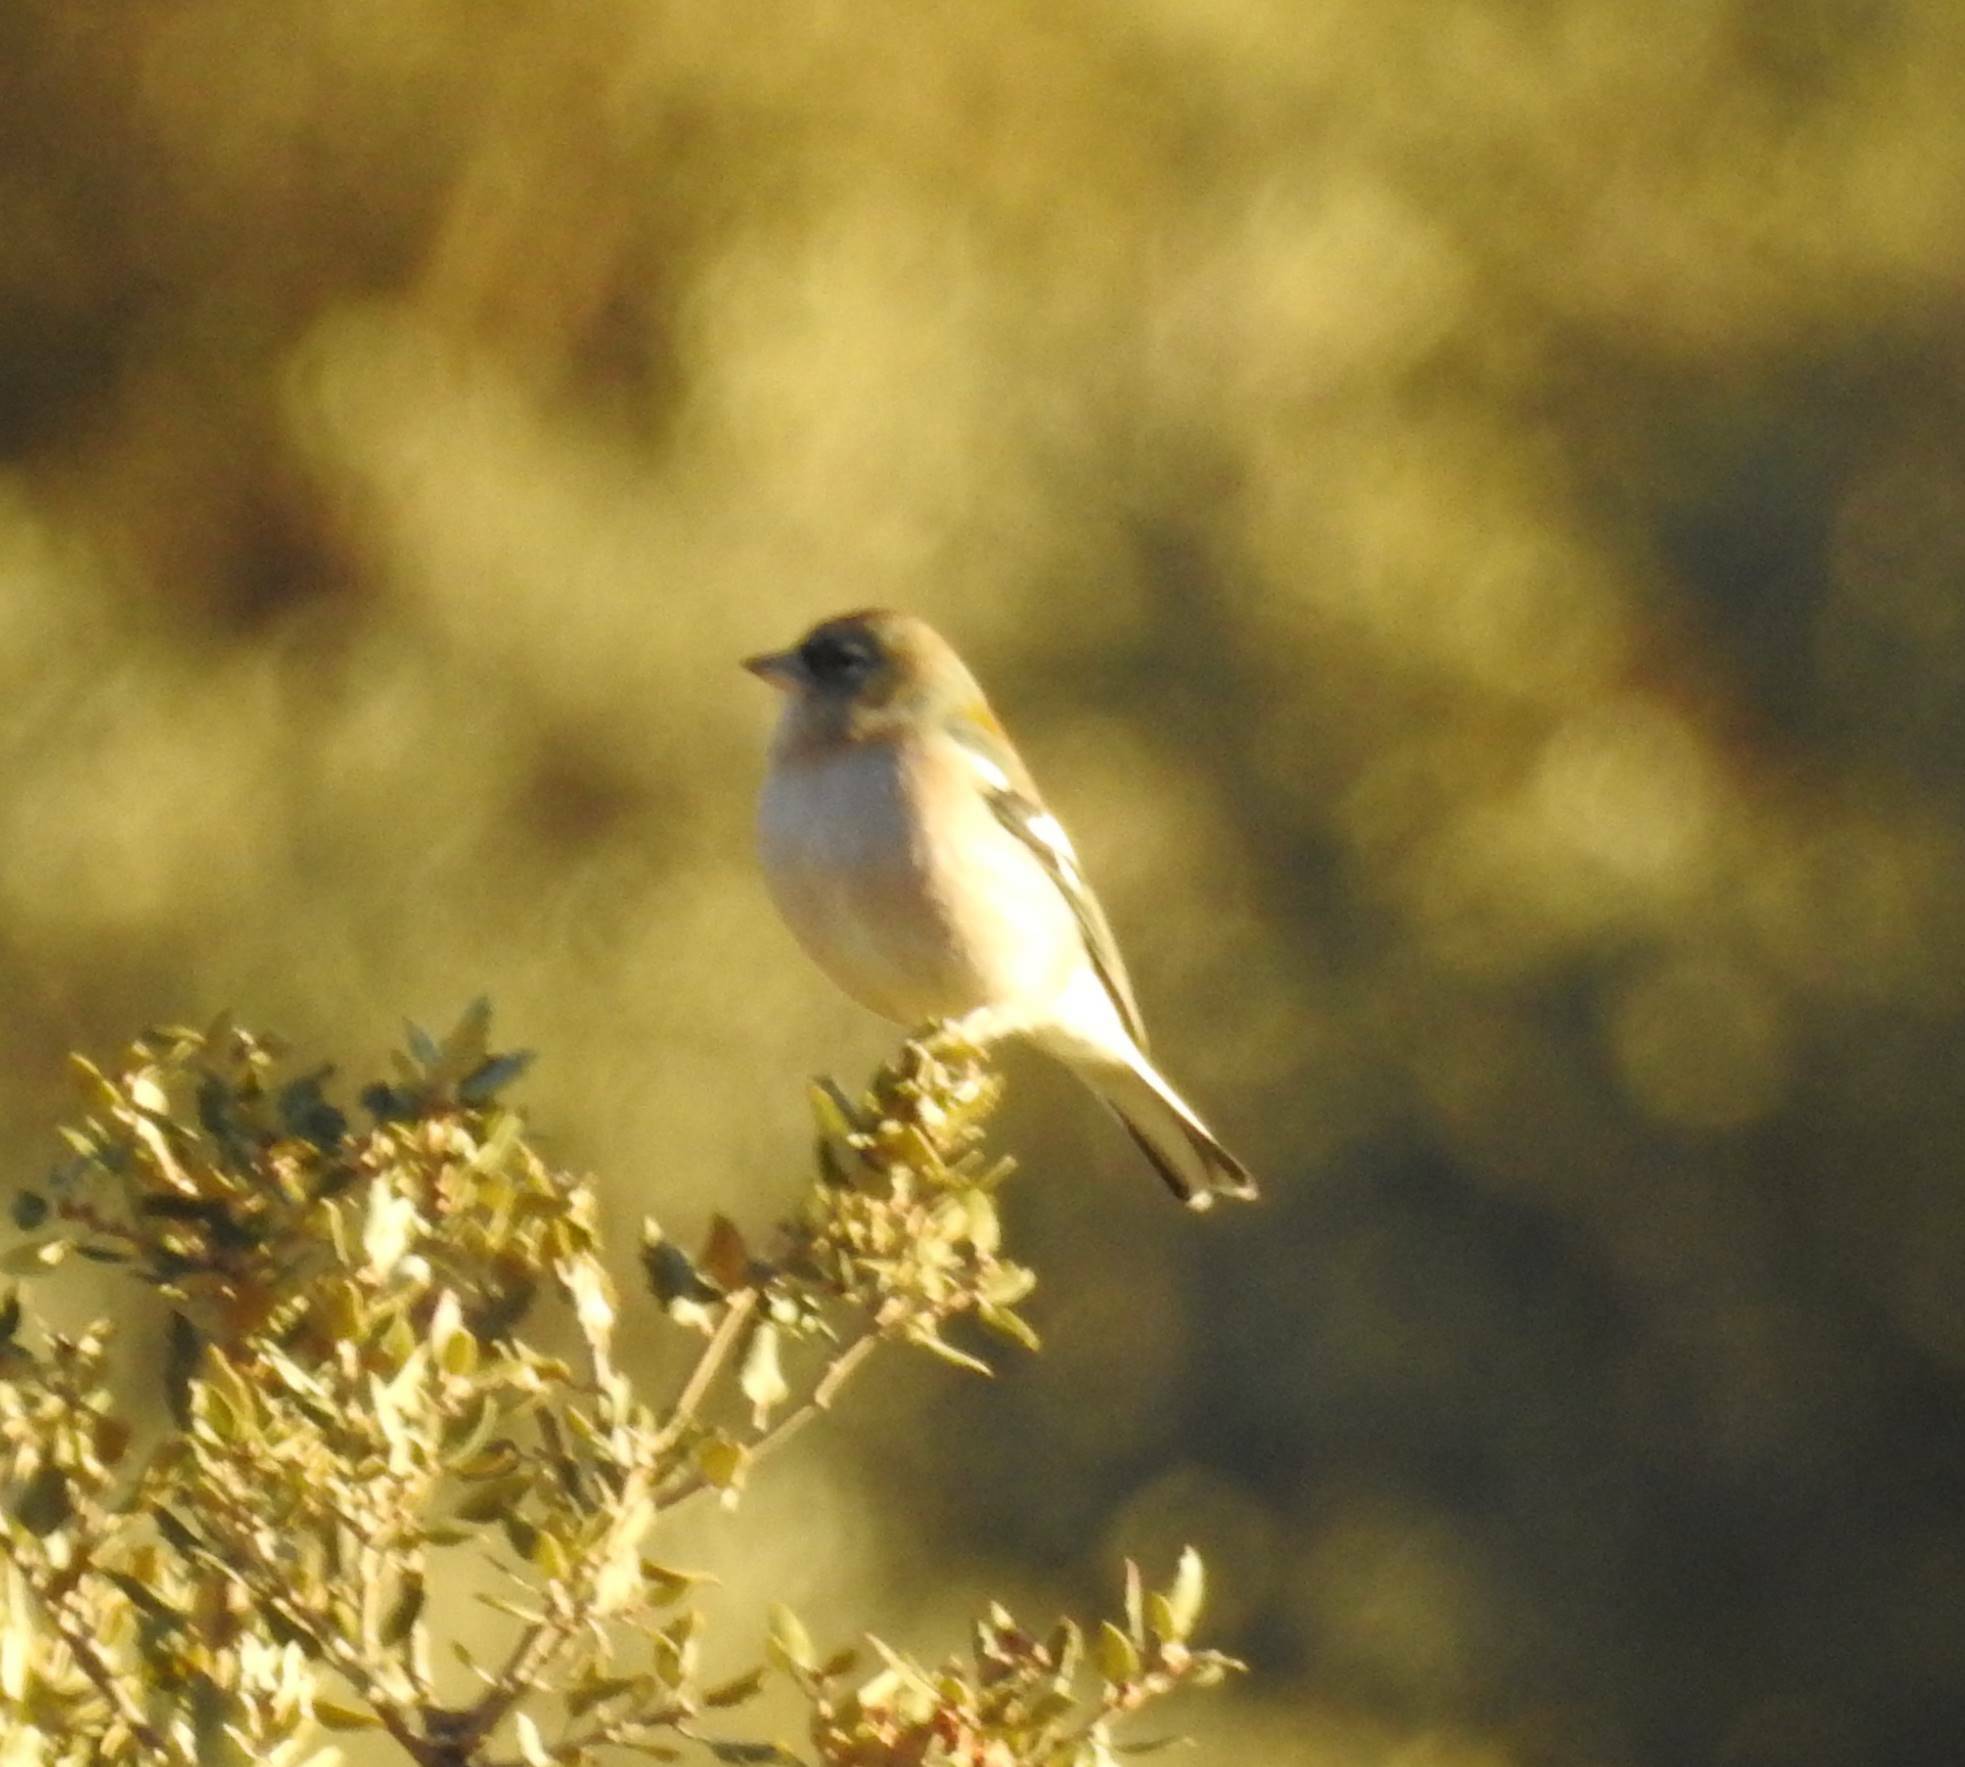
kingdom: Animalia
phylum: Chordata
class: Aves
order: Passeriformes
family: Fringillidae
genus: Fringilla
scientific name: Fringilla spodiogenys
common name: African chaffinch
